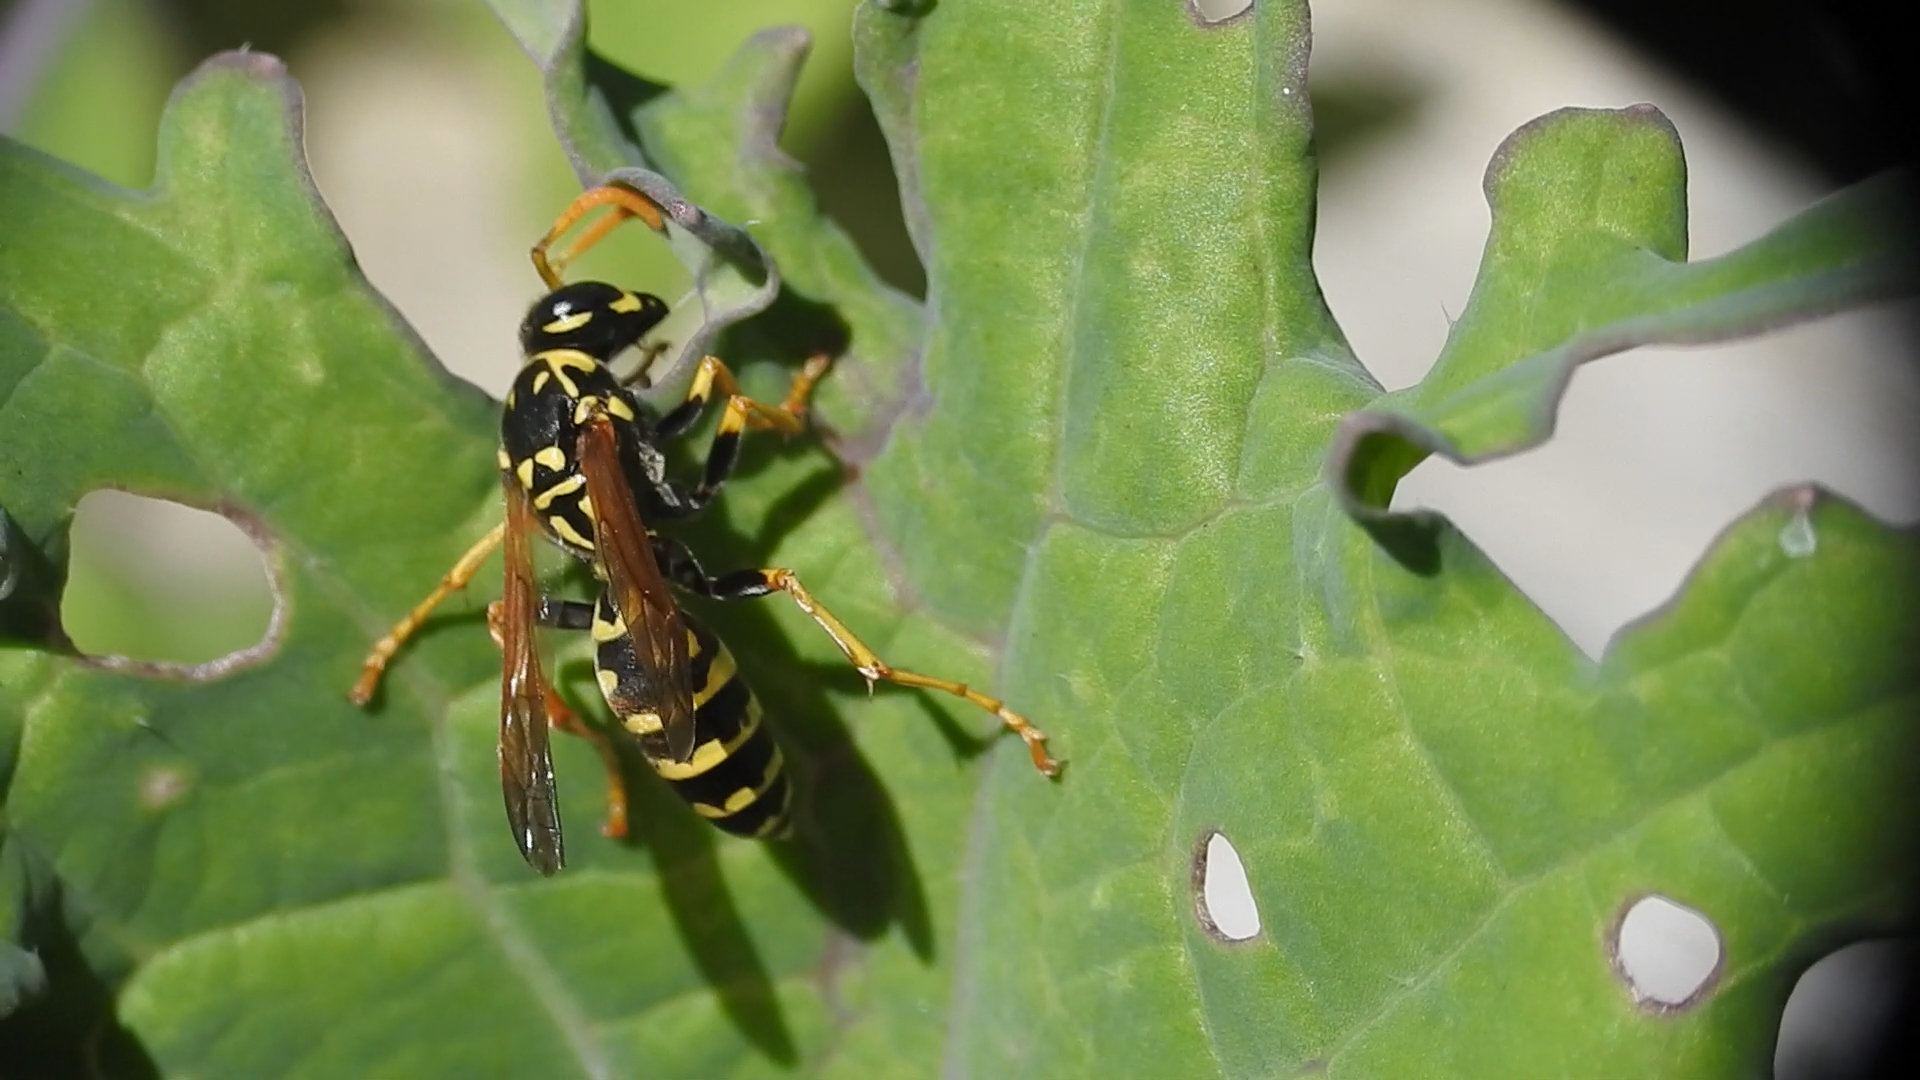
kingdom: Animalia
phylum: Arthropoda
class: Insecta
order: Hymenoptera
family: Eumenidae
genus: Polistes
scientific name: Polistes dominula
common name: Paper wasp
